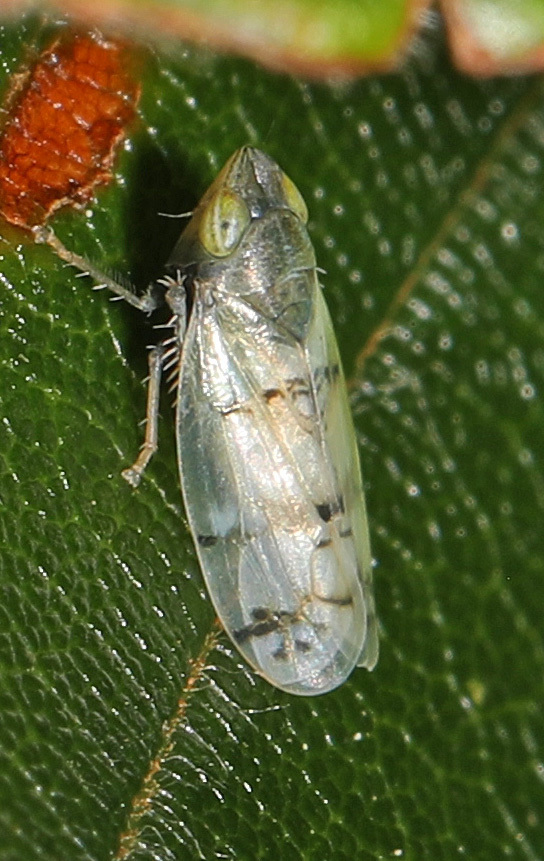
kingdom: Animalia
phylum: Arthropoda
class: Insecta
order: Hemiptera
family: Cicadellidae
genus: Japananus
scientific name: Japananus hyalinus
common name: The japanese maple leafhopper
